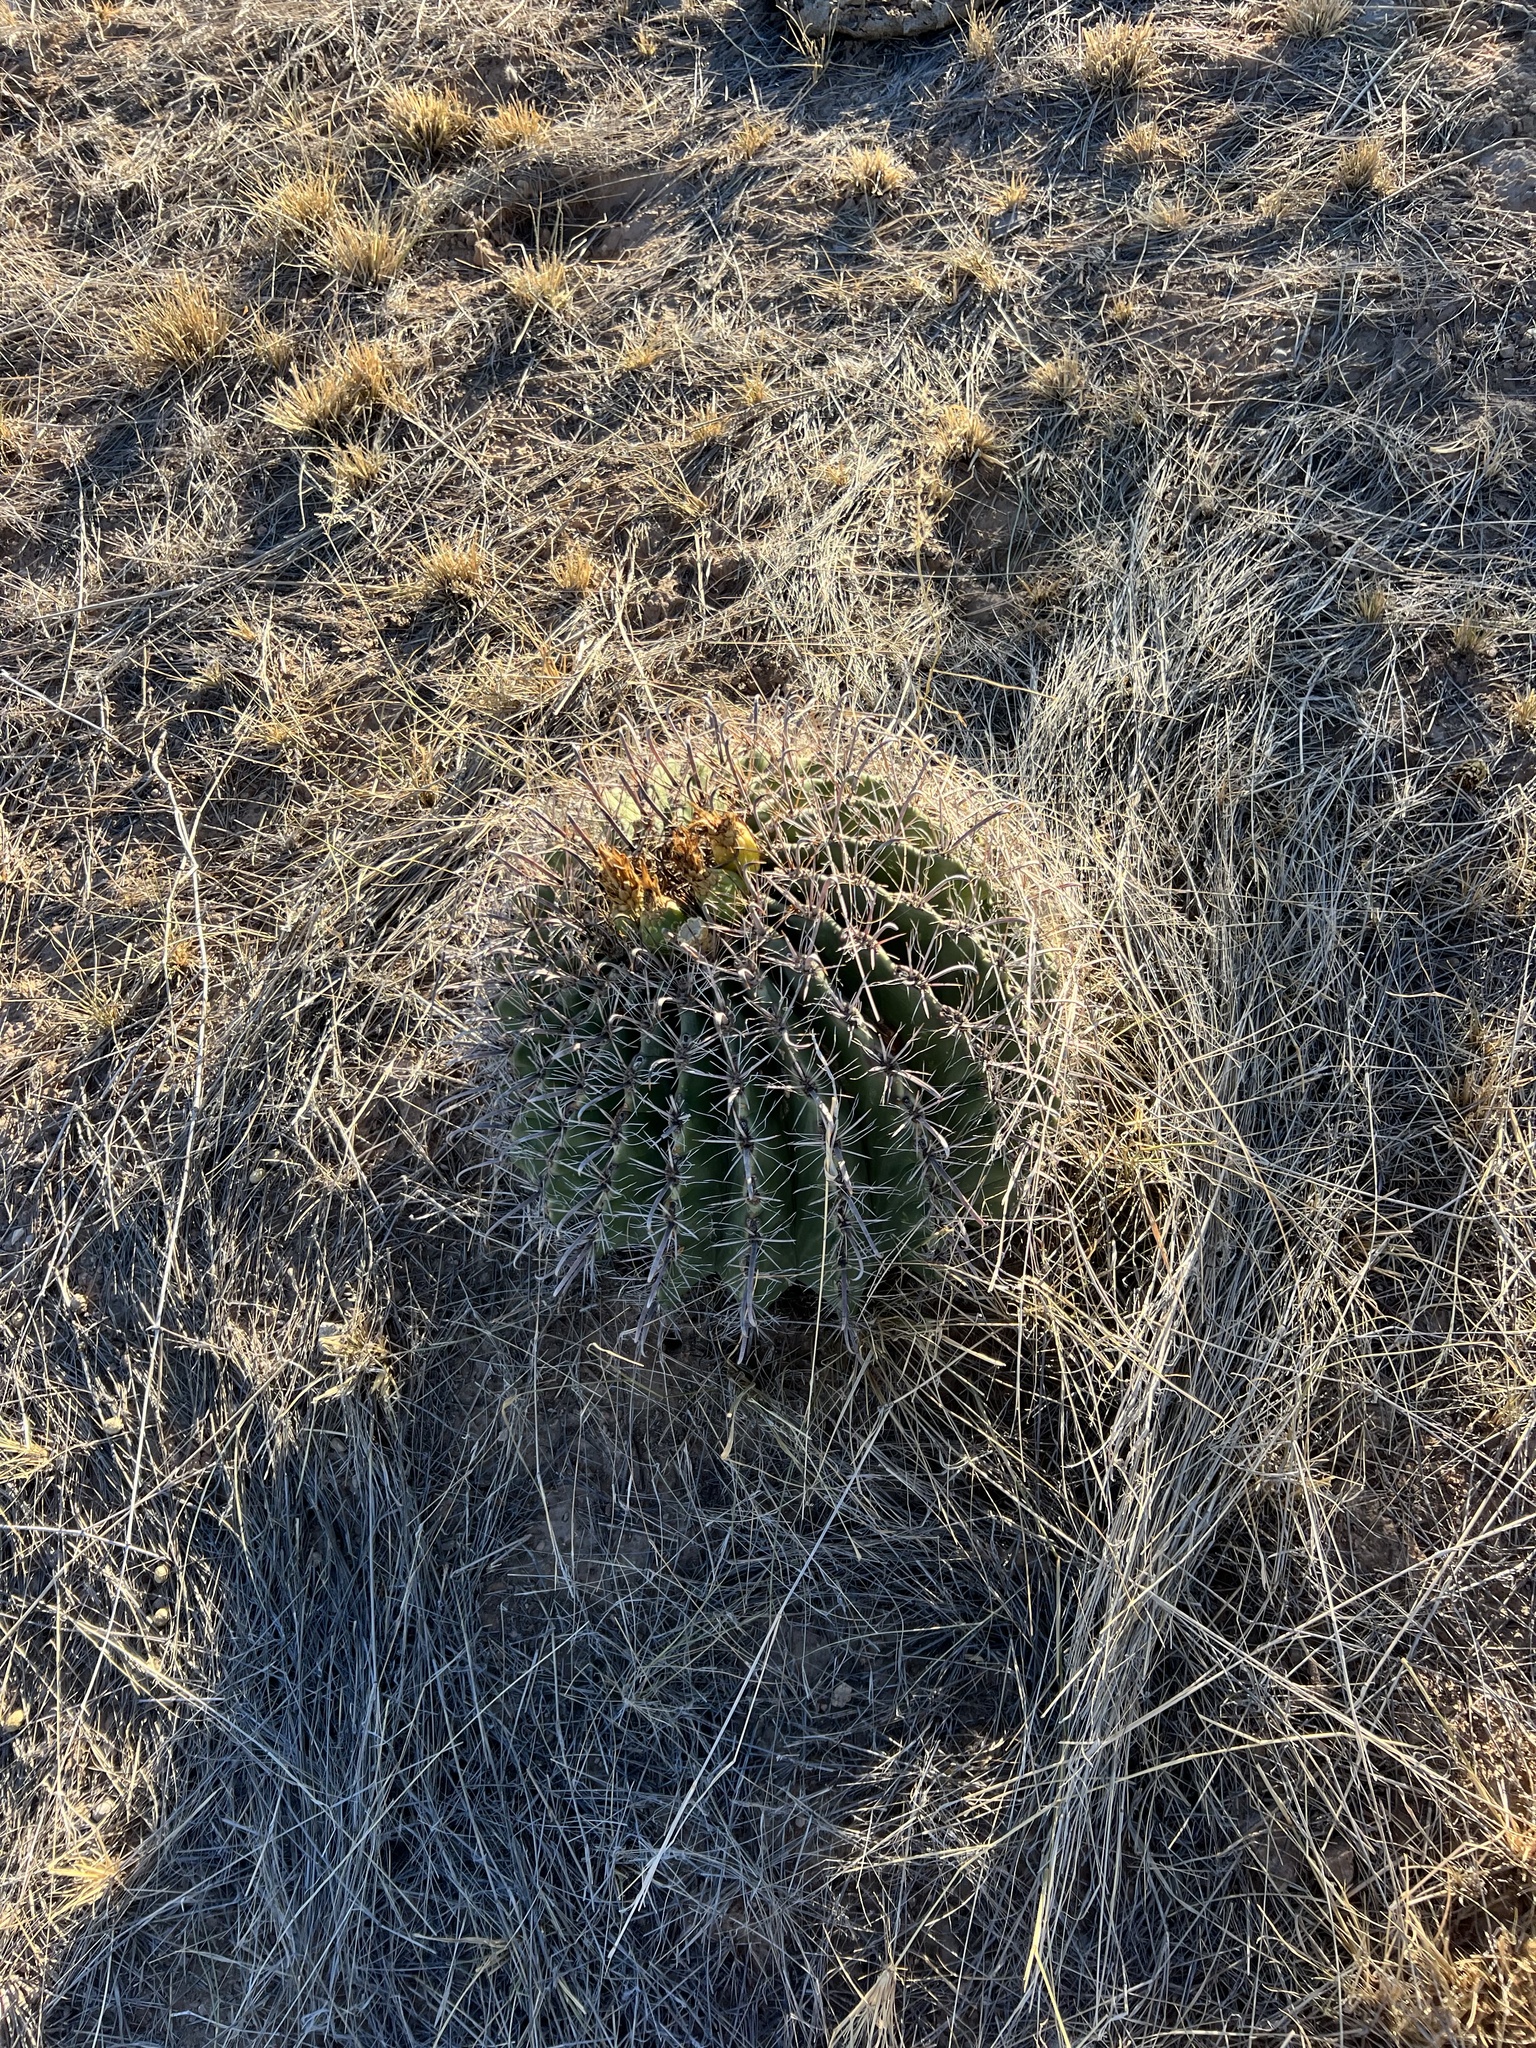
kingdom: Plantae
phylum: Tracheophyta
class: Magnoliopsida
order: Caryophyllales
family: Cactaceae
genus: Ferocactus
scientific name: Ferocactus wislizeni
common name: Candy barrel cactus
